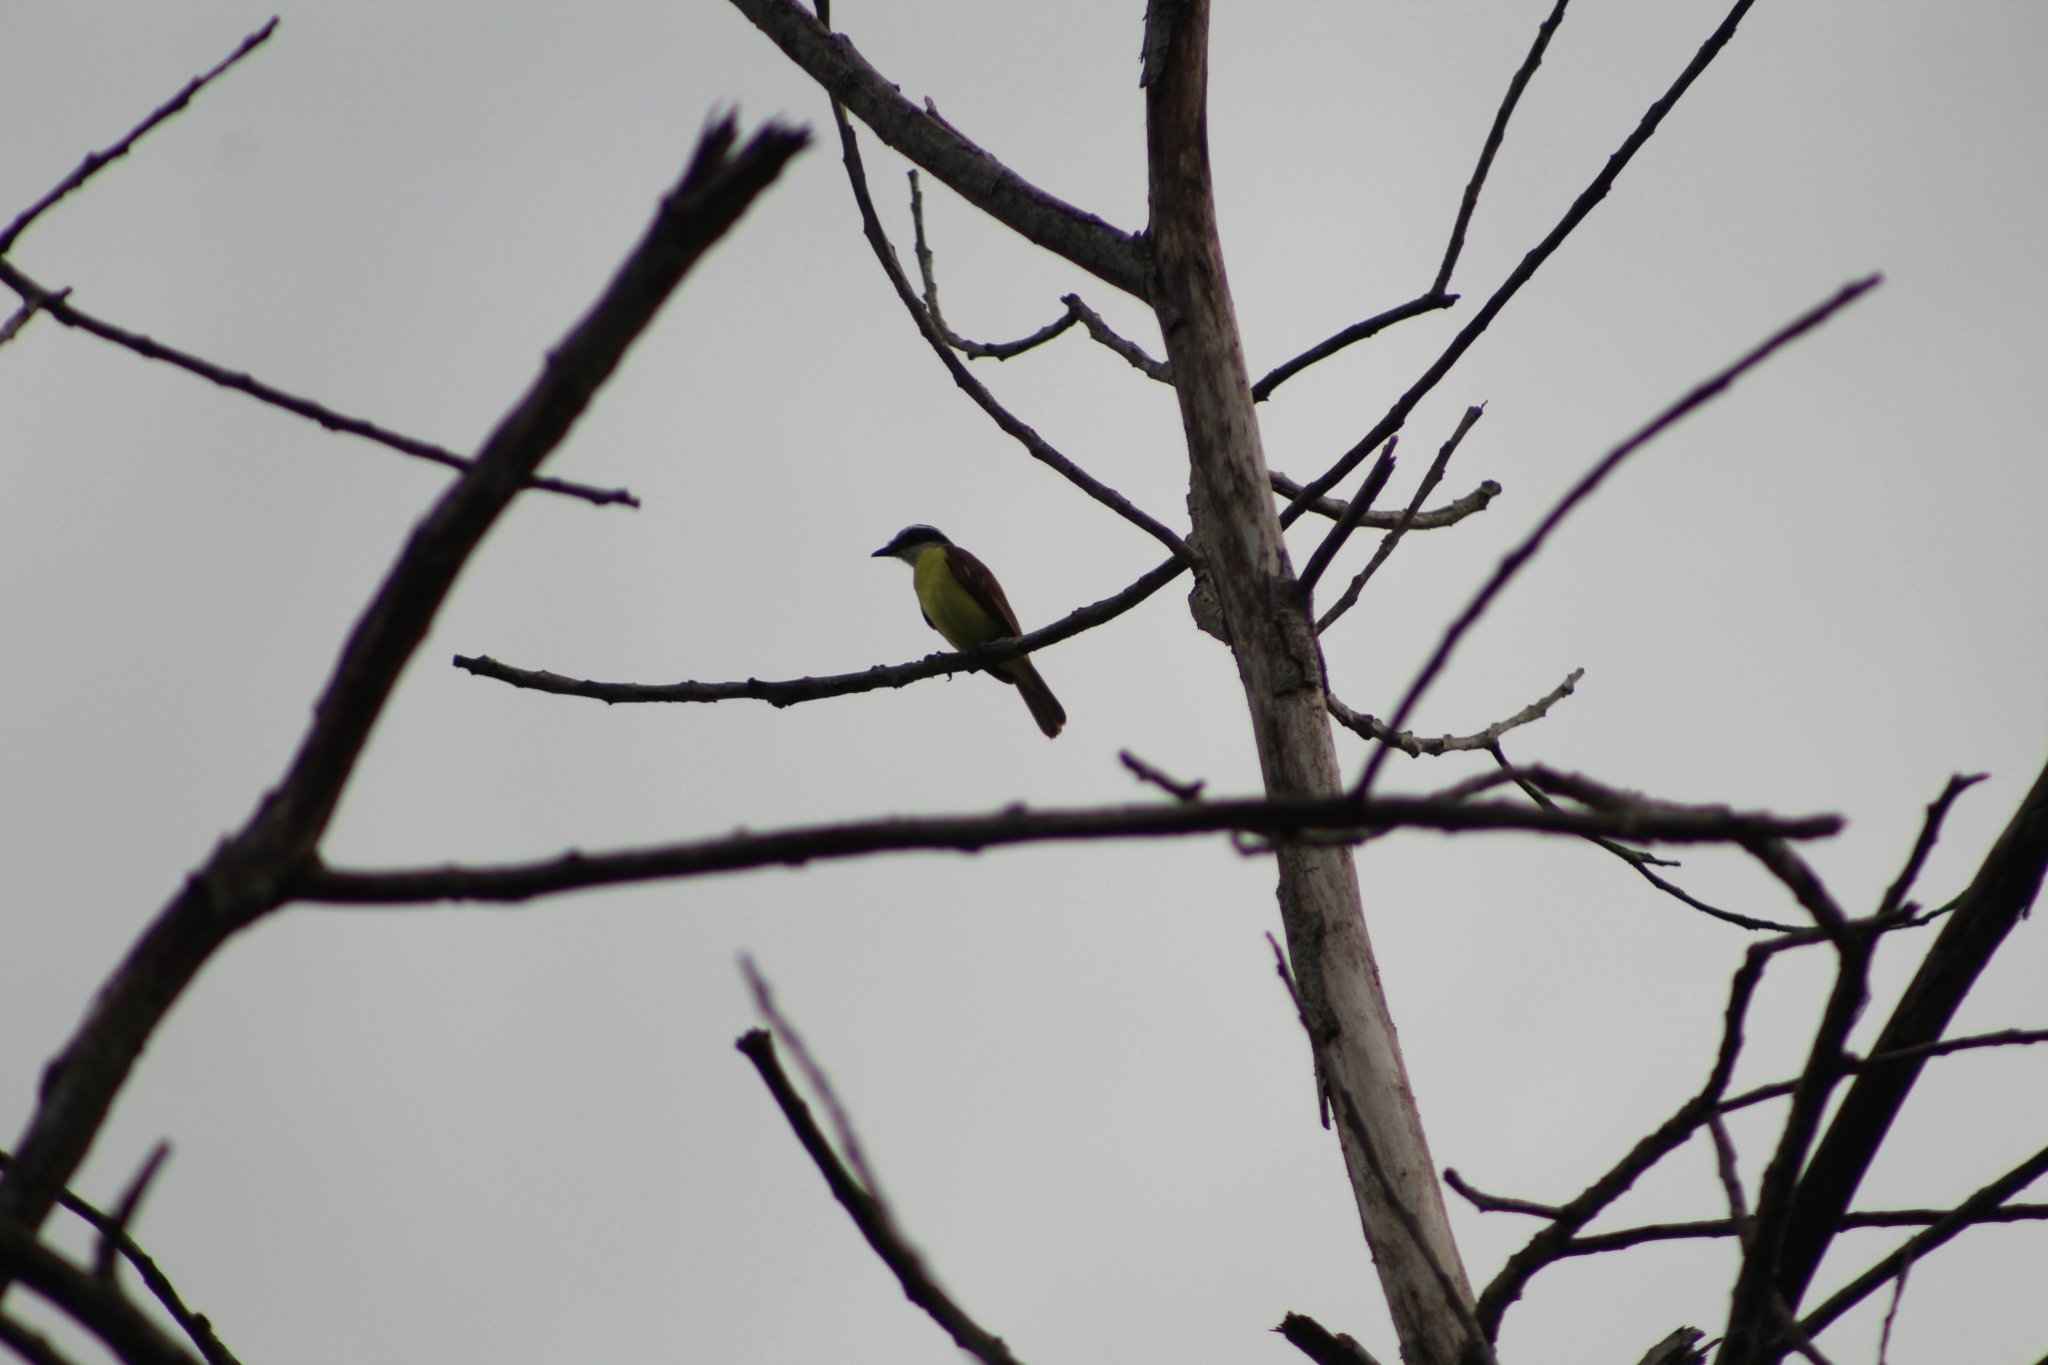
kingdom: Animalia
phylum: Chordata
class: Aves
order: Passeriformes
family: Tyrannidae
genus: Pitangus
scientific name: Pitangus sulphuratus
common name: Great kiskadee
